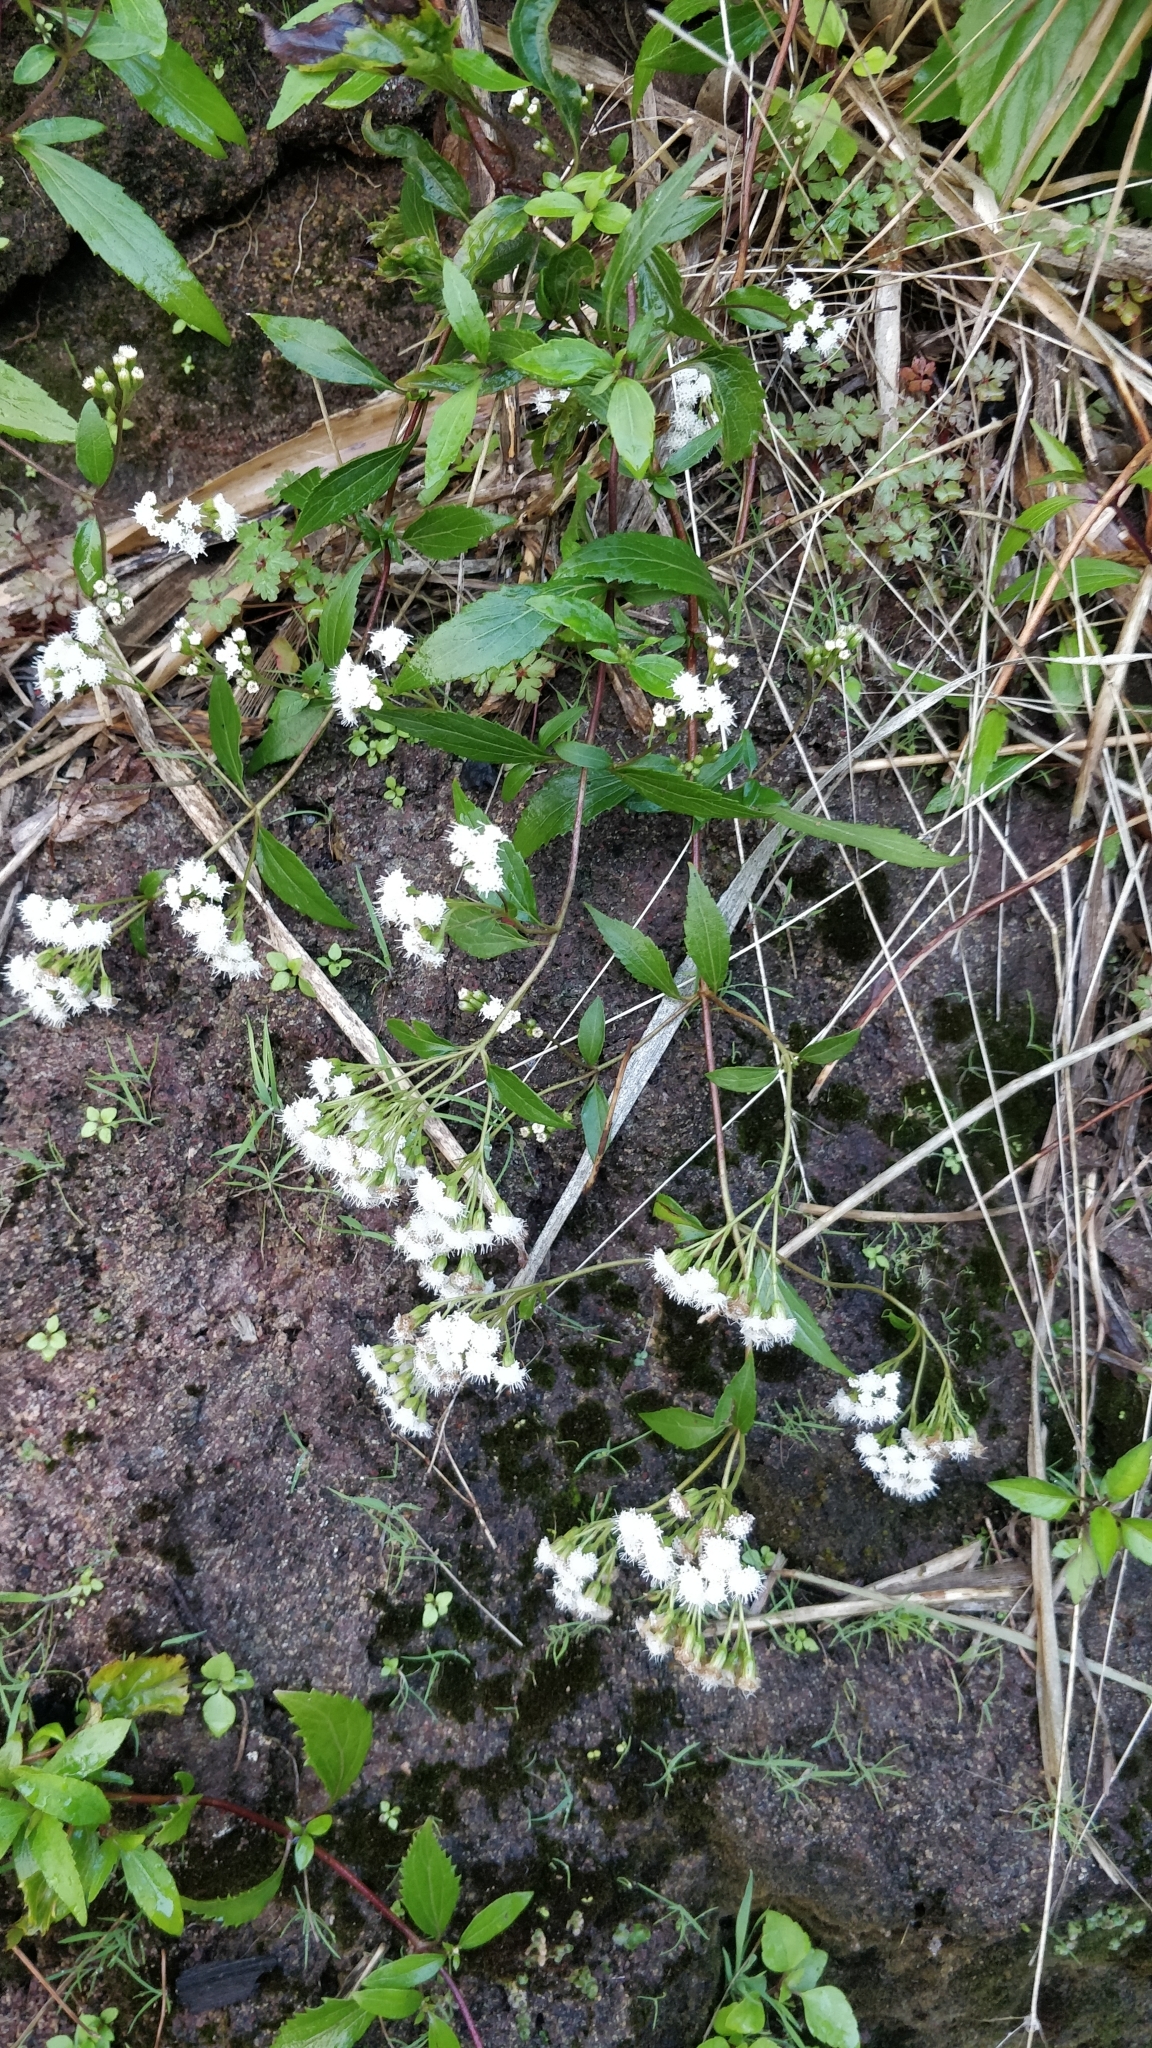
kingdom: Plantae
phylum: Tracheophyta
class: Magnoliopsida
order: Asterales
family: Asteraceae
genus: Ageratina
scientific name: Ageratina riparia
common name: Creeping croftonweed
